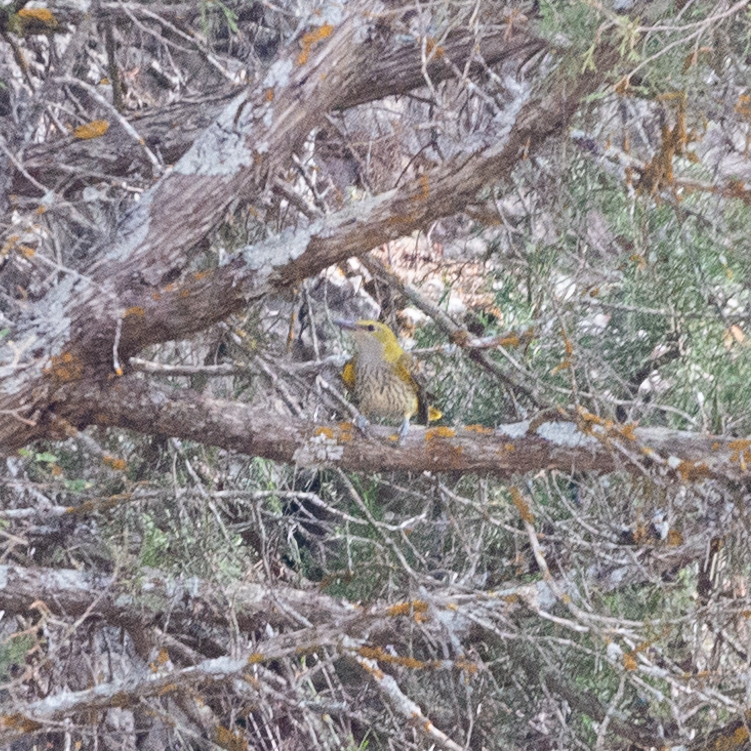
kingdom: Animalia
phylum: Chordata
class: Aves
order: Passeriformes
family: Oriolidae
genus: Oriolus
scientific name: Oriolus oriolus
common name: Eurasian golden oriole
